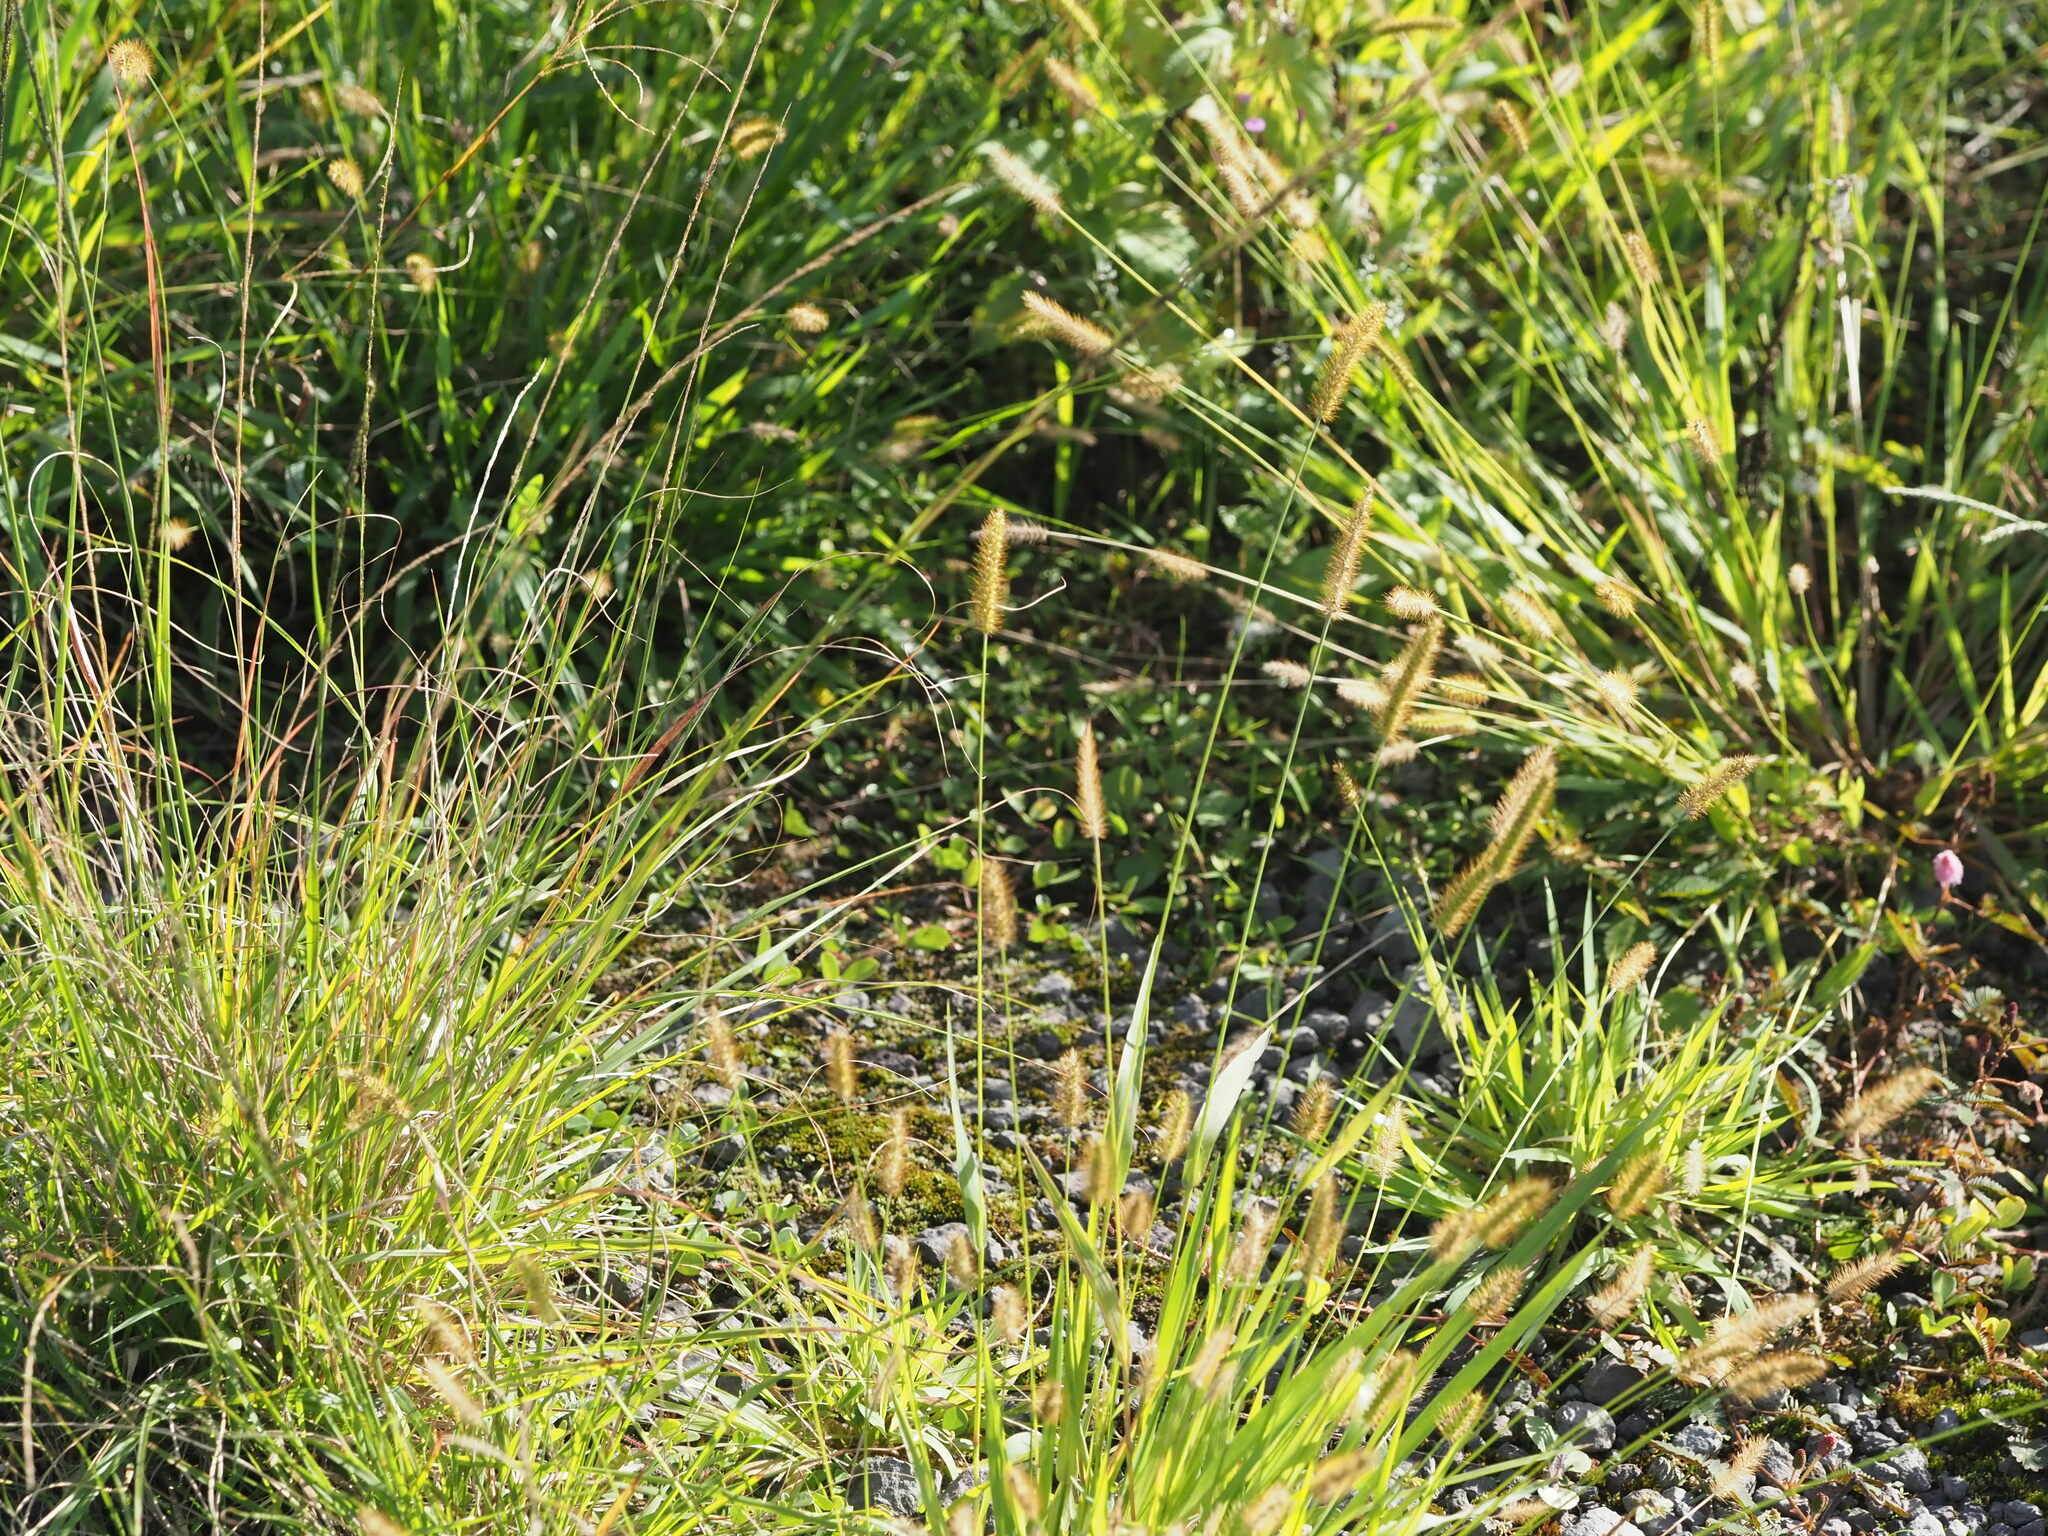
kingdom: Plantae
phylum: Tracheophyta
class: Liliopsida
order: Poales
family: Poaceae
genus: Setaria
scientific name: Setaria parviflora
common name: Knotroot bristle-grass
